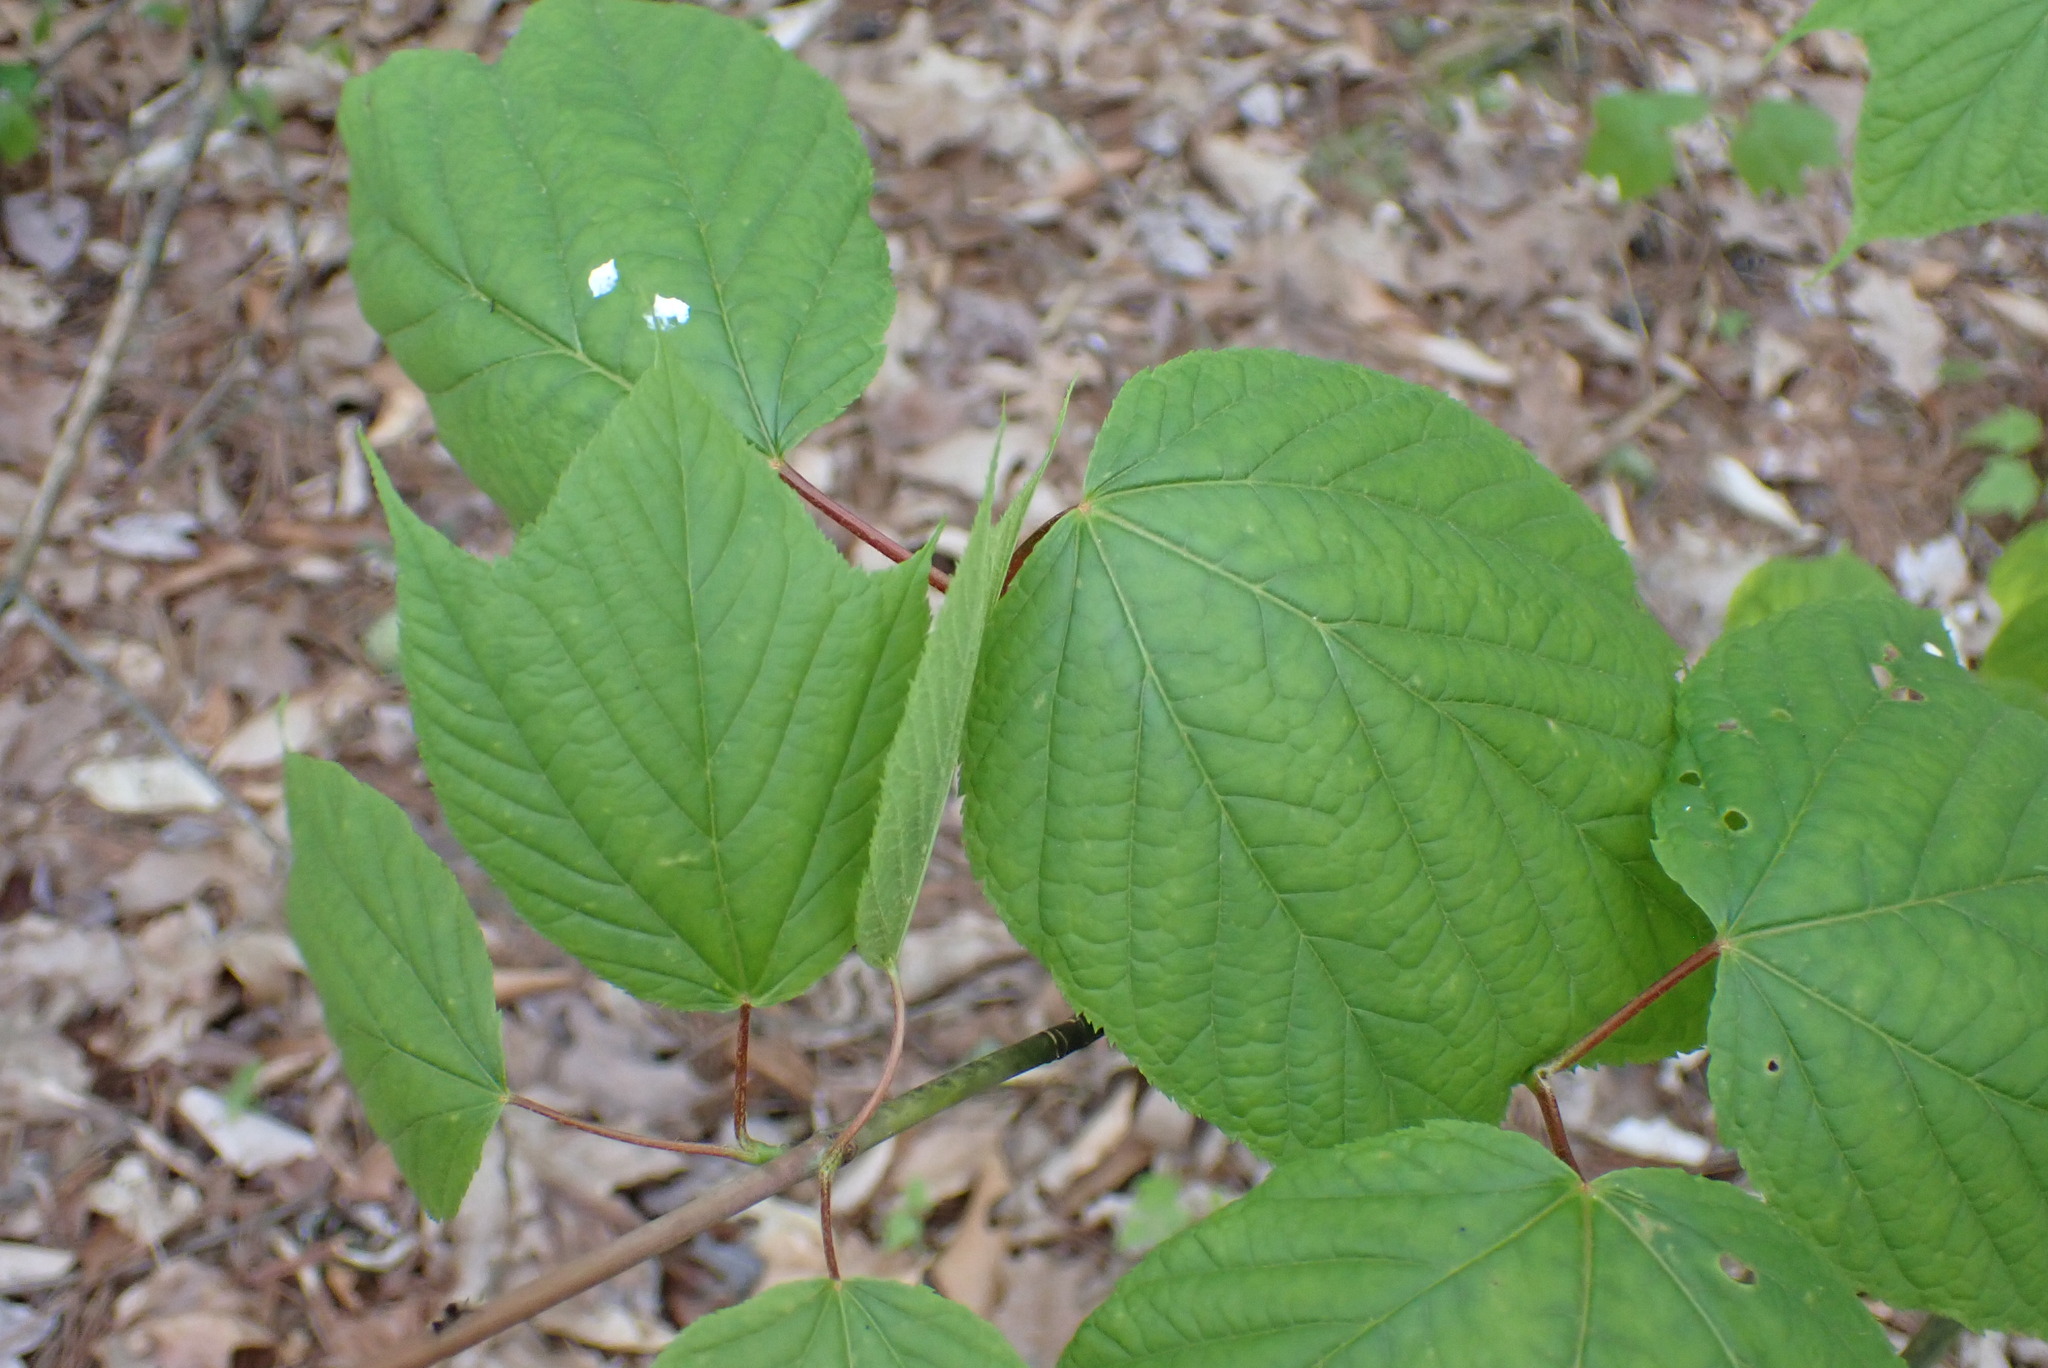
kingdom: Plantae
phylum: Tracheophyta
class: Magnoliopsida
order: Sapindales
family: Sapindaceae
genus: Acer
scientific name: Acer pensylvanicum
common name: Moosewood
